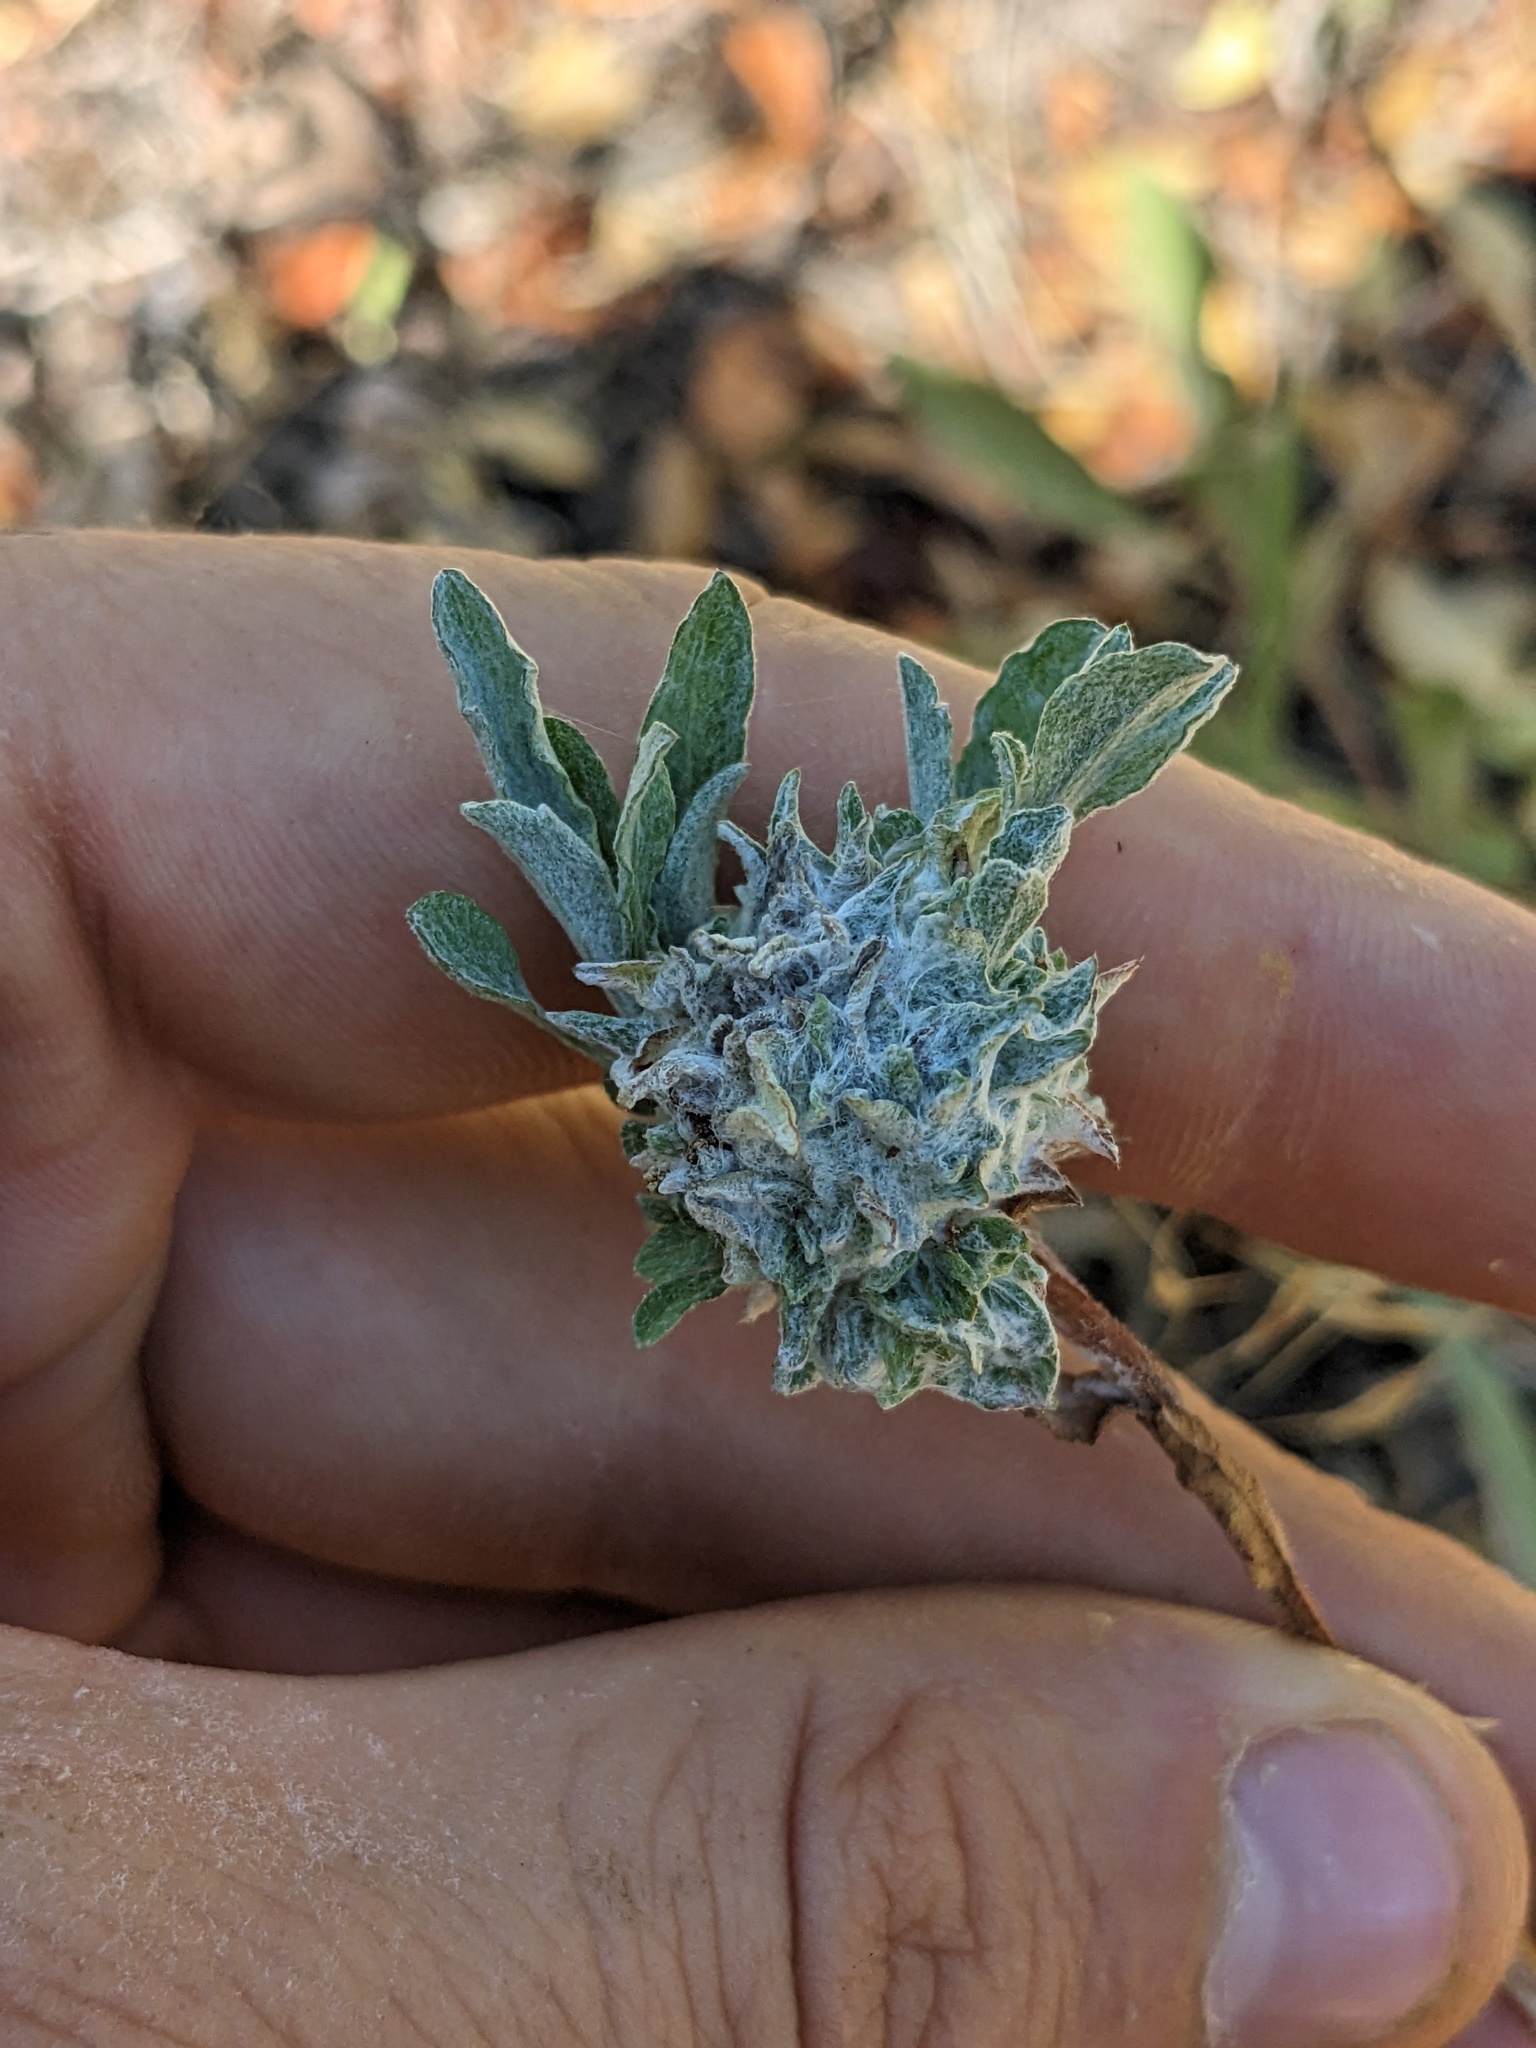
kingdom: Animalia
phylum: Arthropoda
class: Insecta
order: Diptera
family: Cecidomyiidae
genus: Asteromyia
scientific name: Asteromyia
